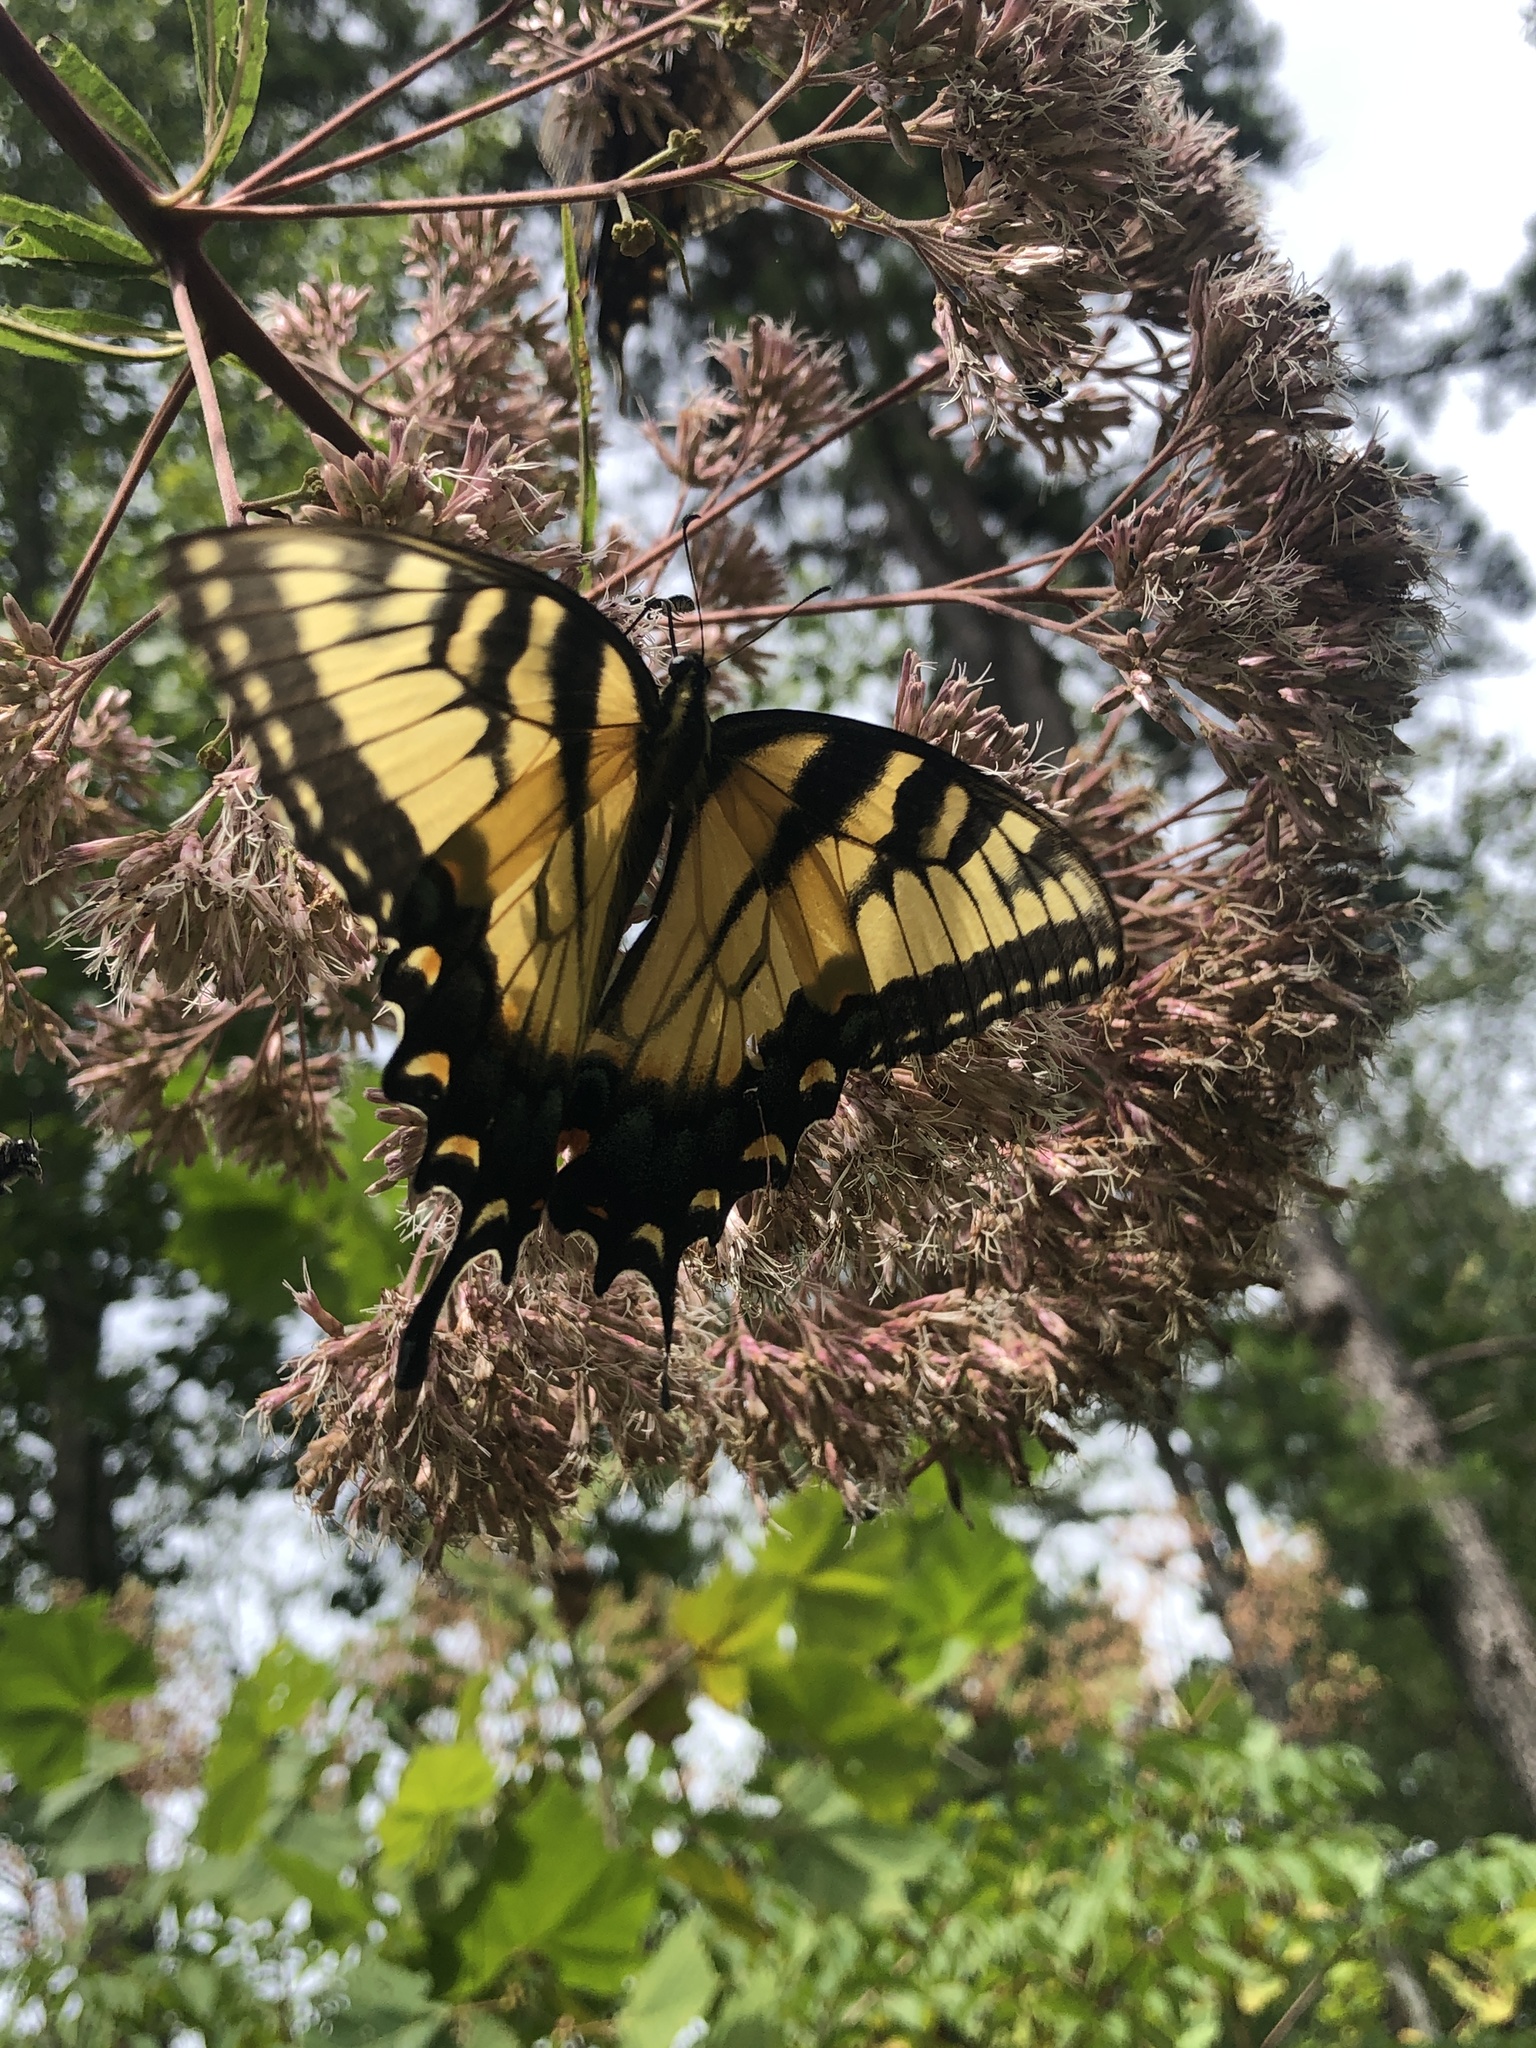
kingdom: Animalia
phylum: Arthropoda
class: Insecta
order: Lepidoptera
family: Papilionidae
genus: Papilio
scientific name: Papilio glaucus
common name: Tiger swallowtail
